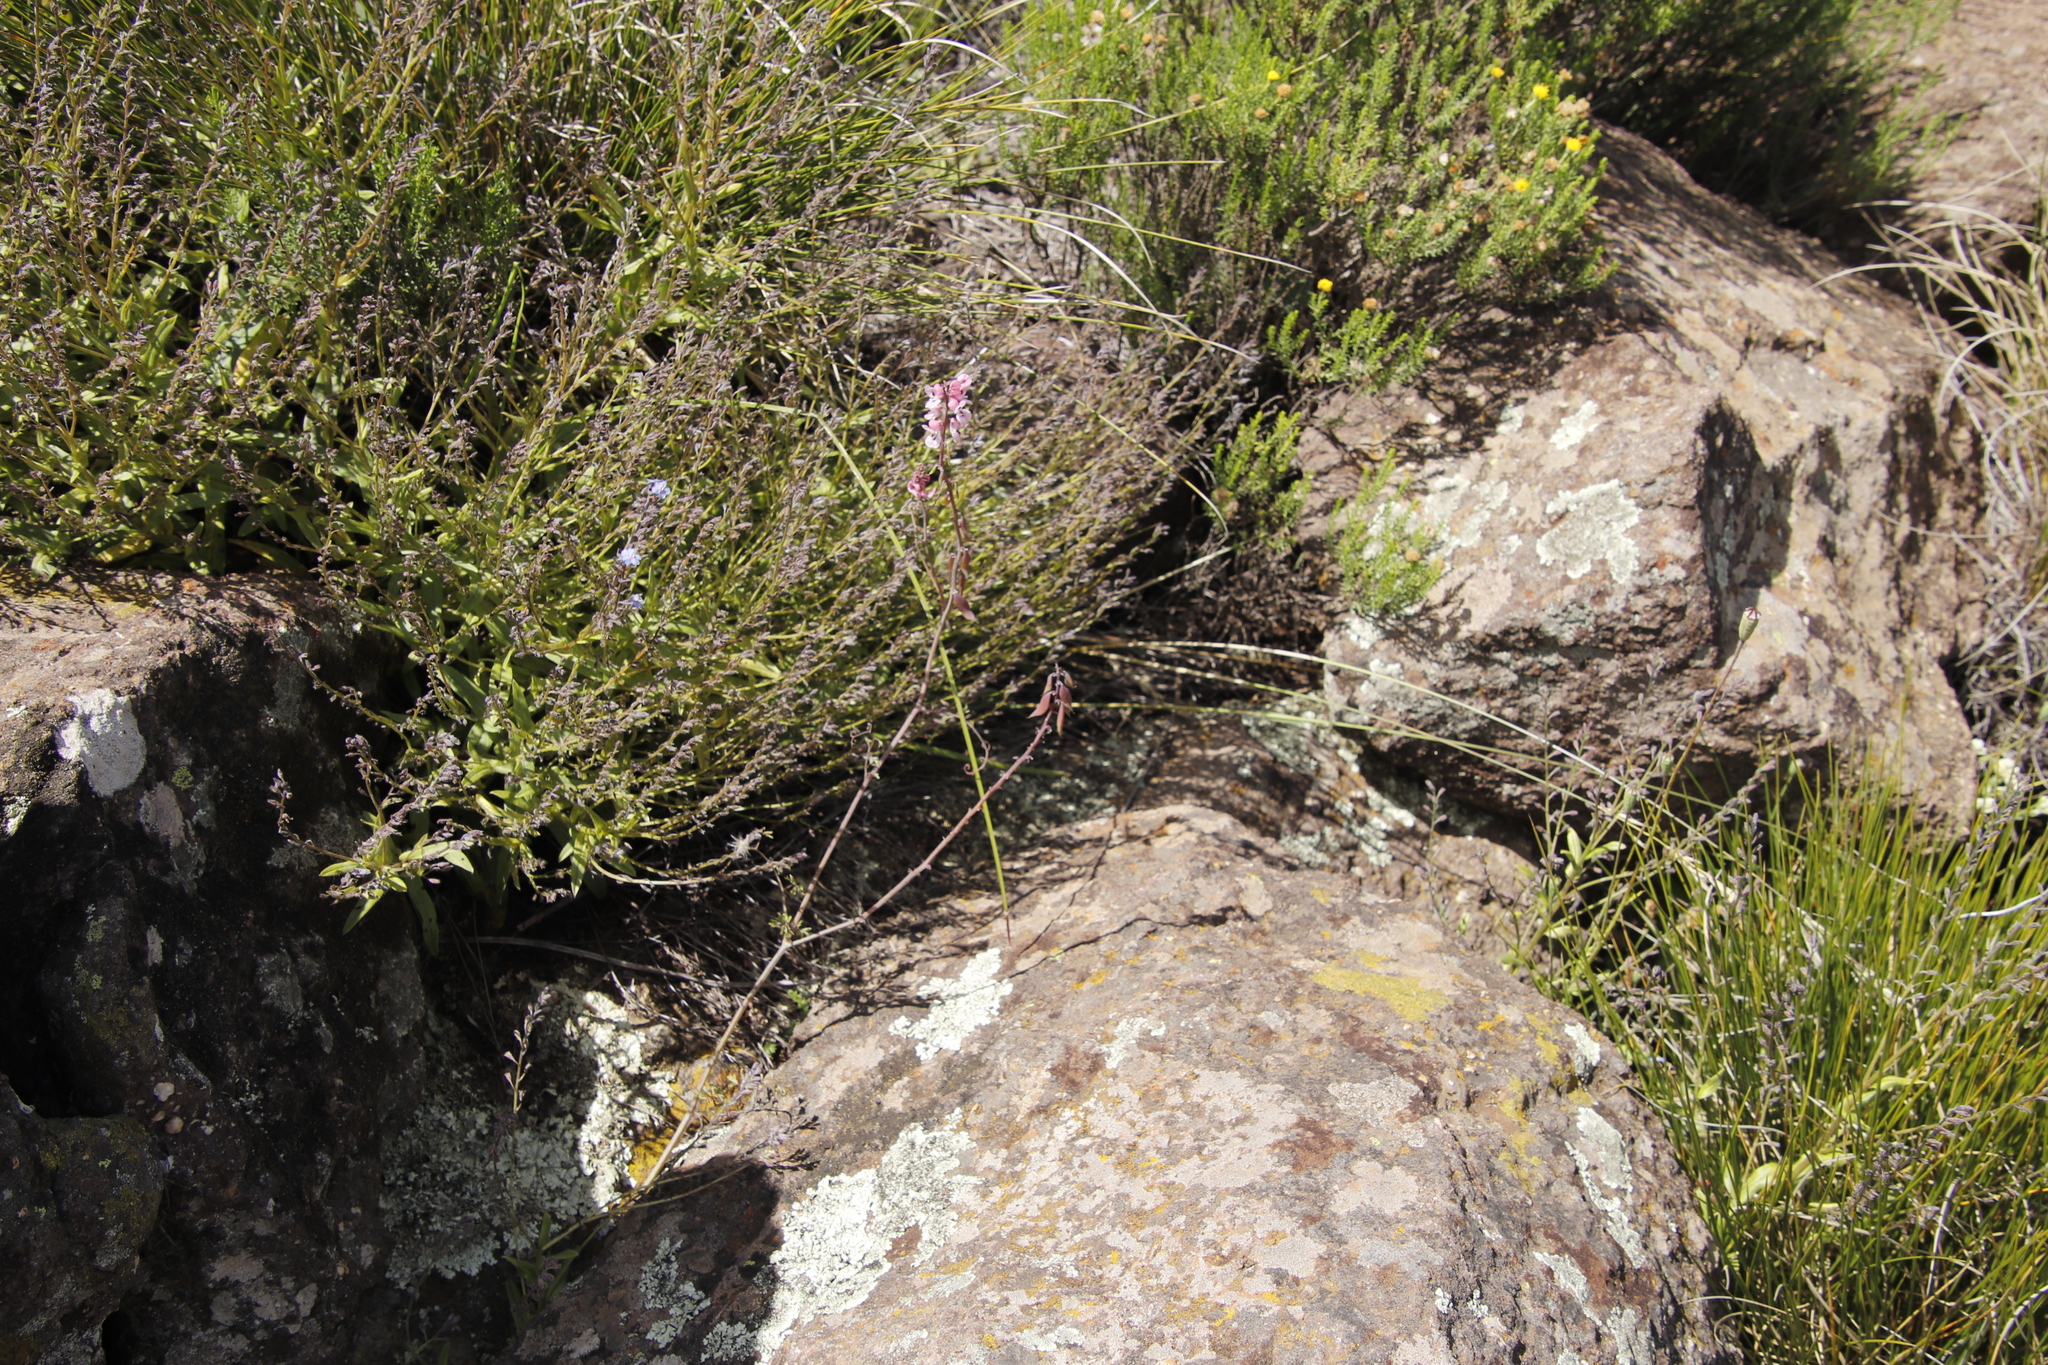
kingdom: Plantae
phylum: Tracheophyta
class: Magnoliopsida
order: Ranunculales
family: Papaveraceae
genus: Cysticapnos
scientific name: Cysticapnos pruinosa
